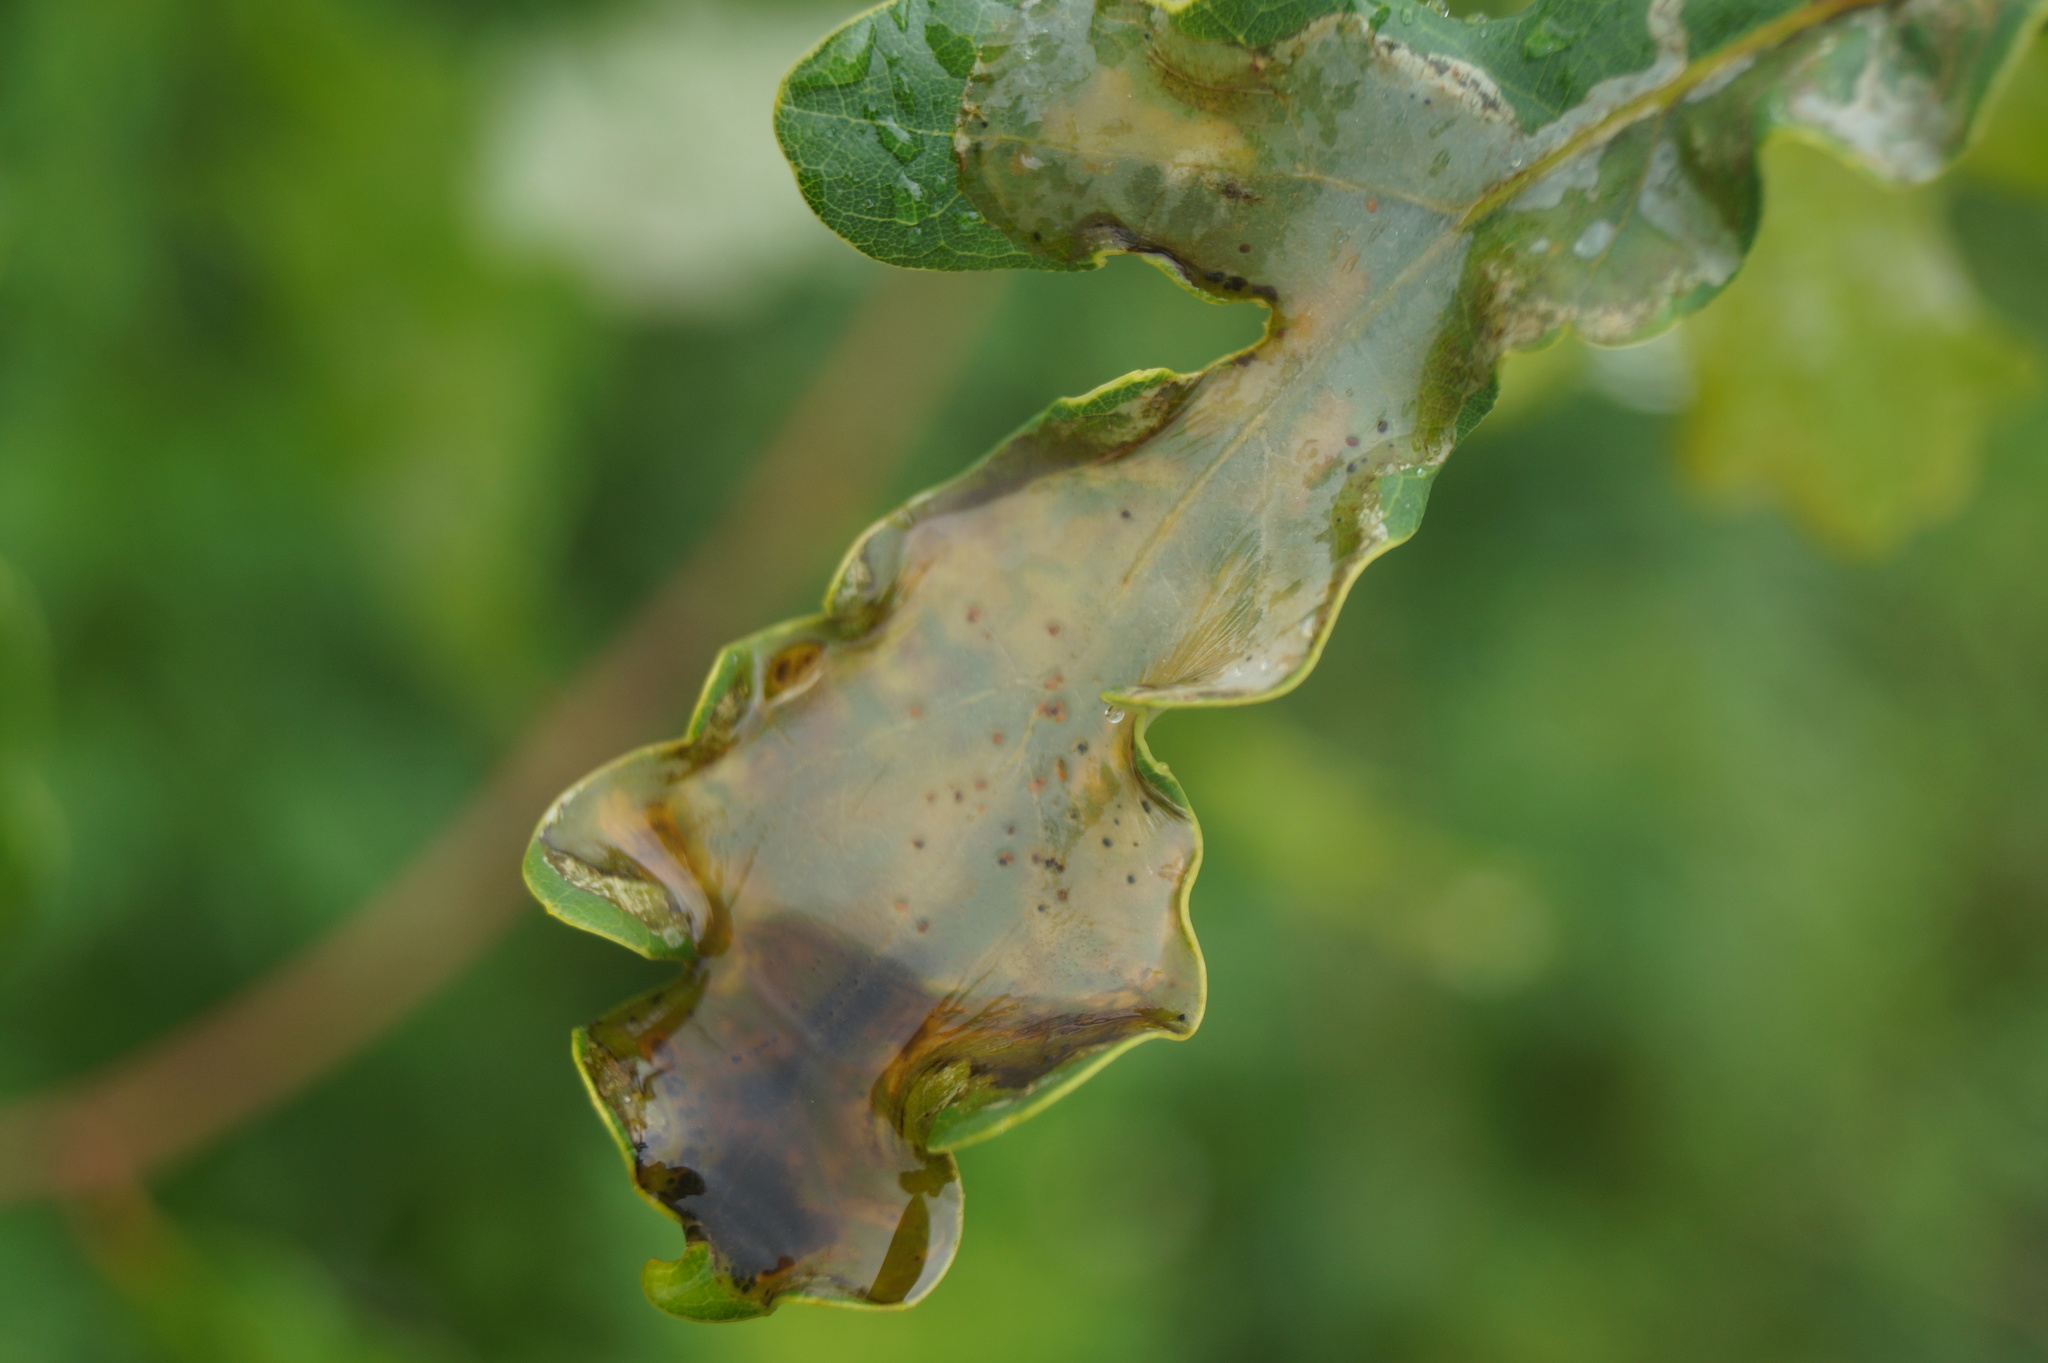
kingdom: Animalia
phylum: Arthropoda
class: Insecta
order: Lepidoptera
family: Gracillariidae
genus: Acrocercops
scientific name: Acrocercops brongniardella
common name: Brown oak slender
